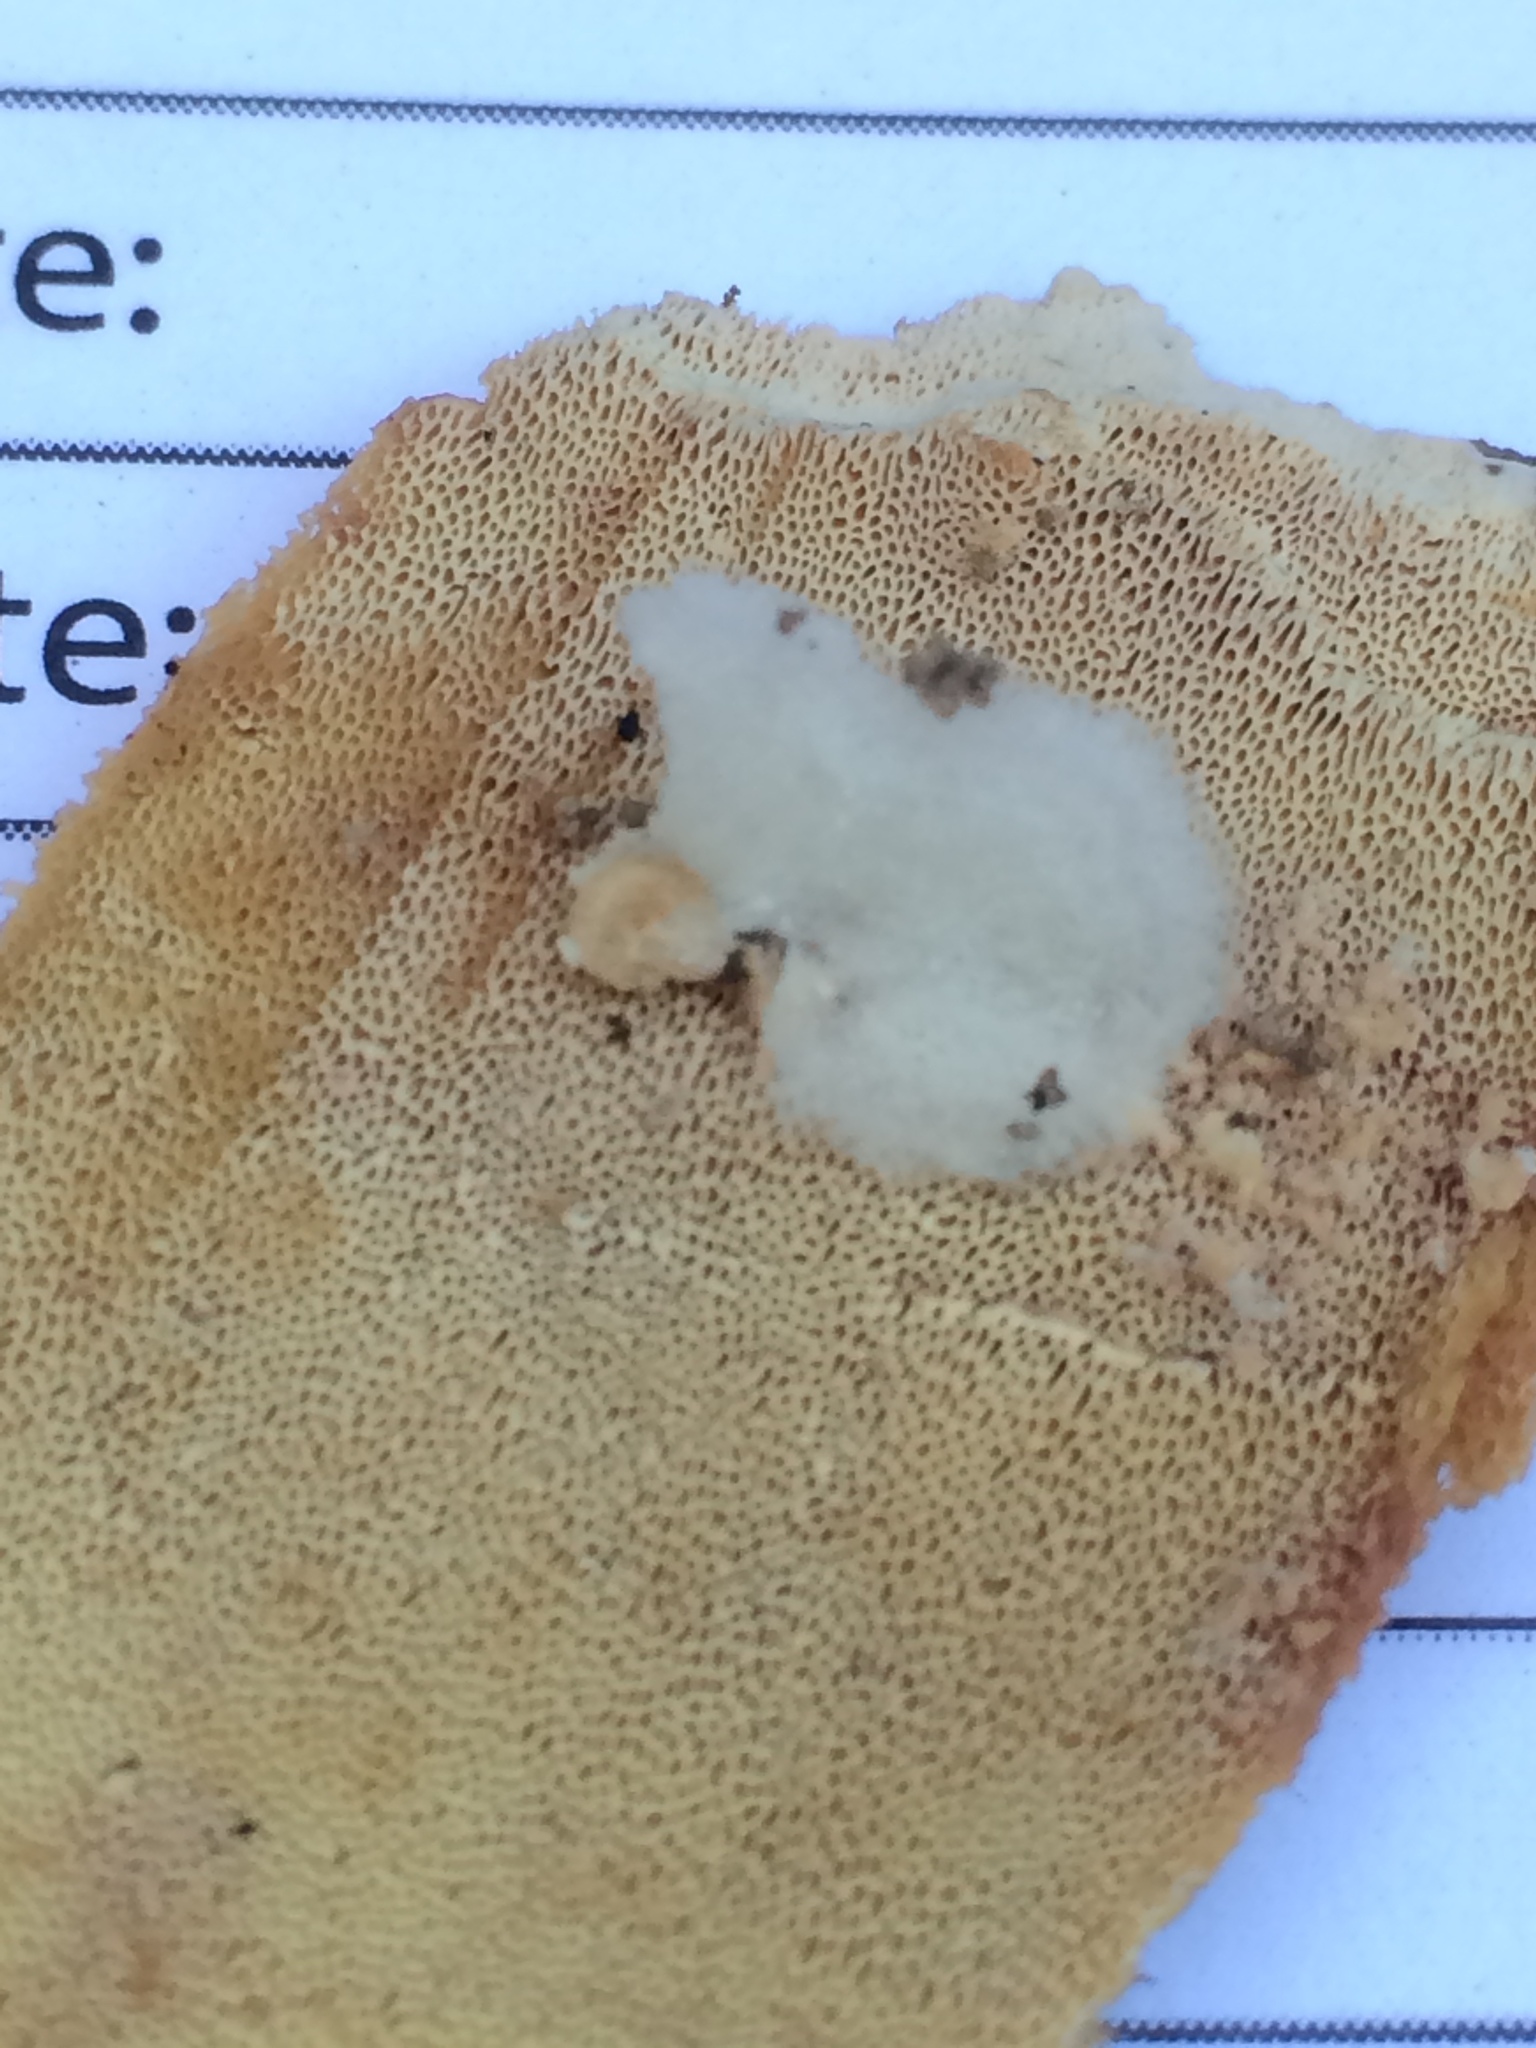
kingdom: Fungi
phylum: Basidiomycota
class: Agaricomycetes
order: Russulales
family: Hericiaceae
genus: Pseudowrightoporia
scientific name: Pseudowrightoporia cylindrospora
